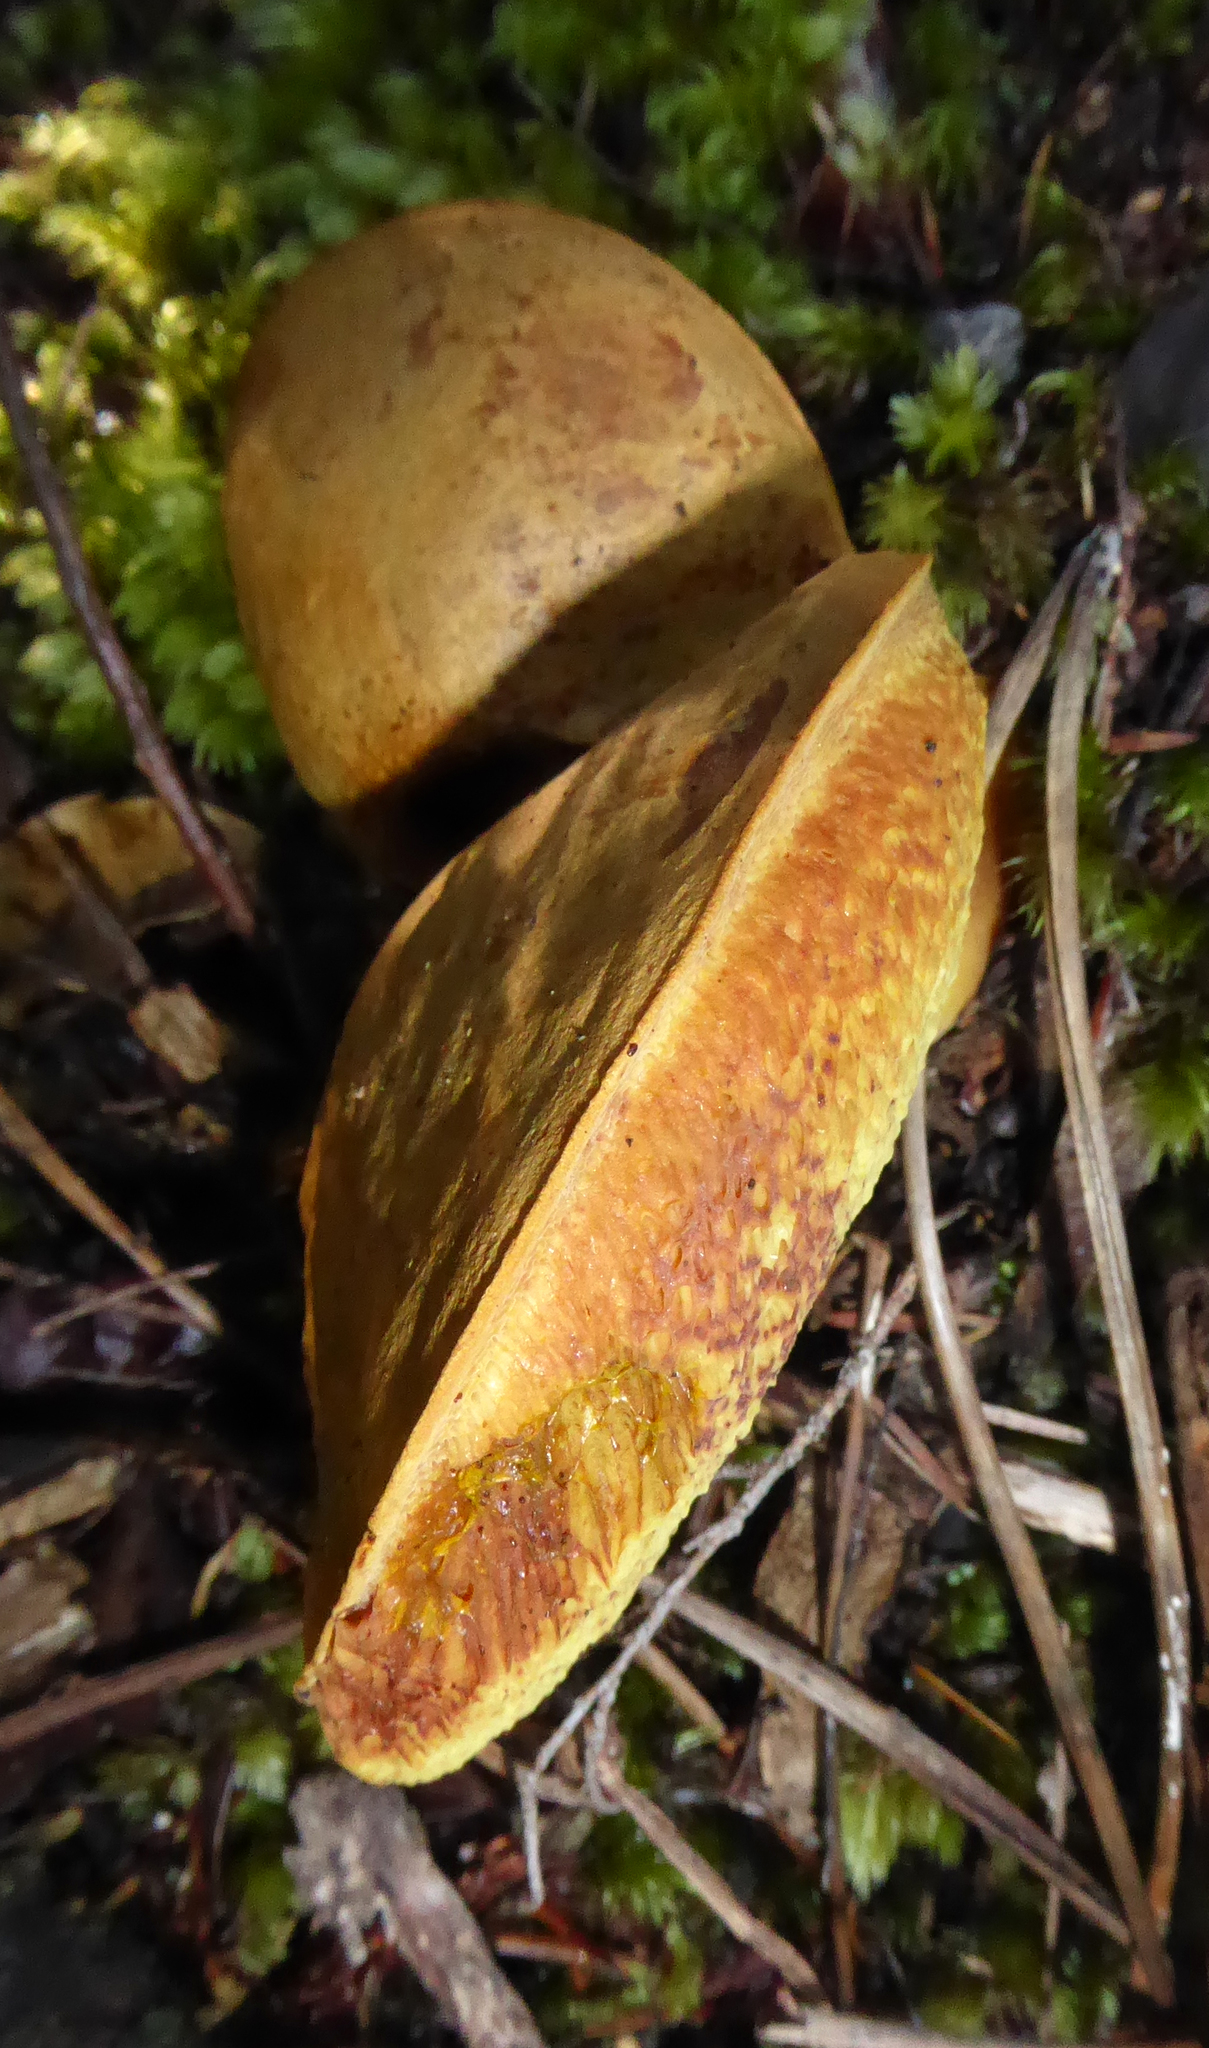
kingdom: Fungi
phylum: Basidiomycota
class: Agaricomycetes
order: Boletales
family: Boletaceae
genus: Boletus
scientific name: Boletus rawlingsii
